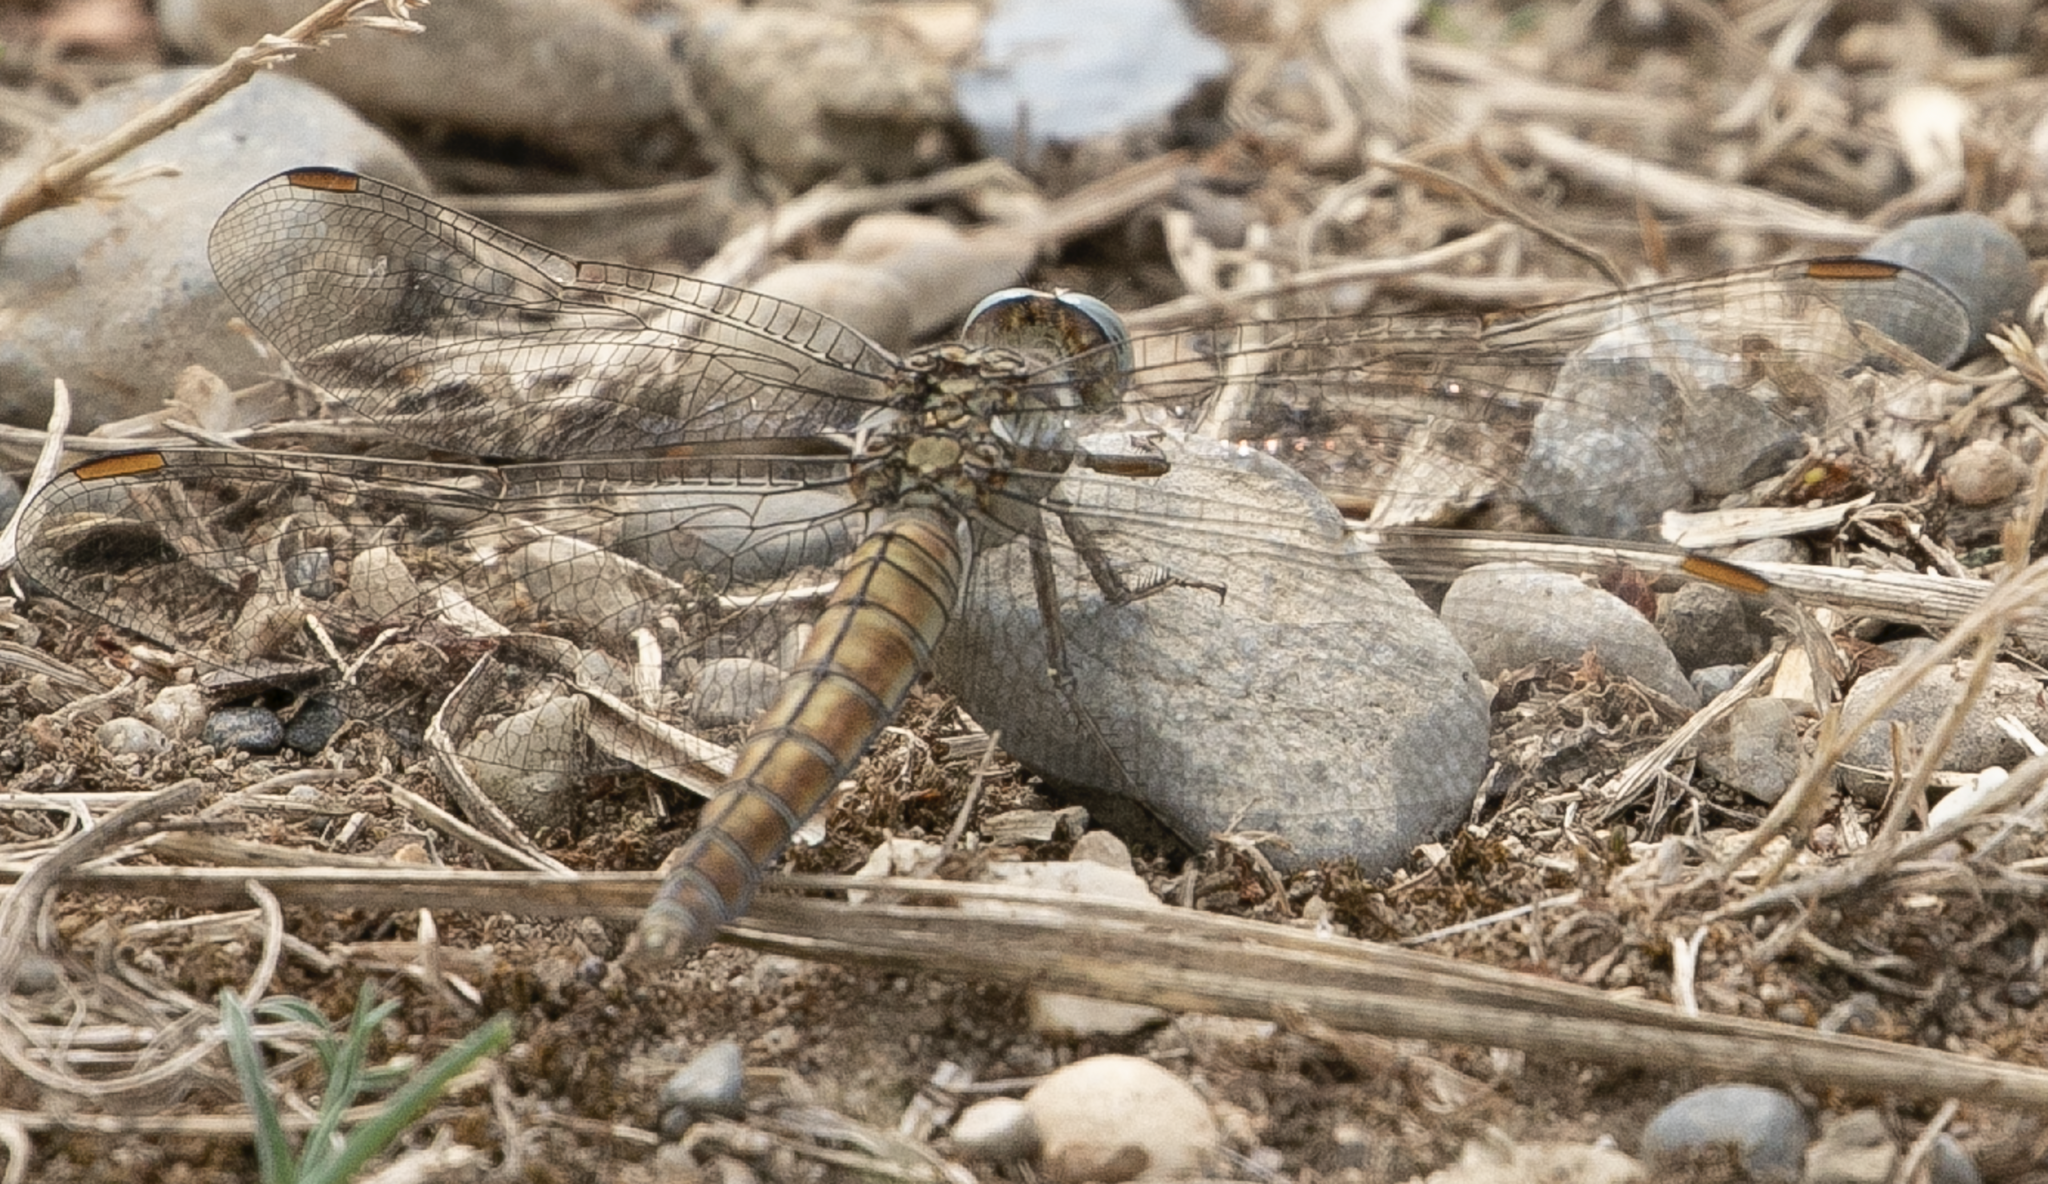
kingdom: Animalia
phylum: Arthropoda
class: Insecta
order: Odonata
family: Libellulidae
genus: Orthetrum
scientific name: Orthetrum brunneum
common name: Southern skimmer
